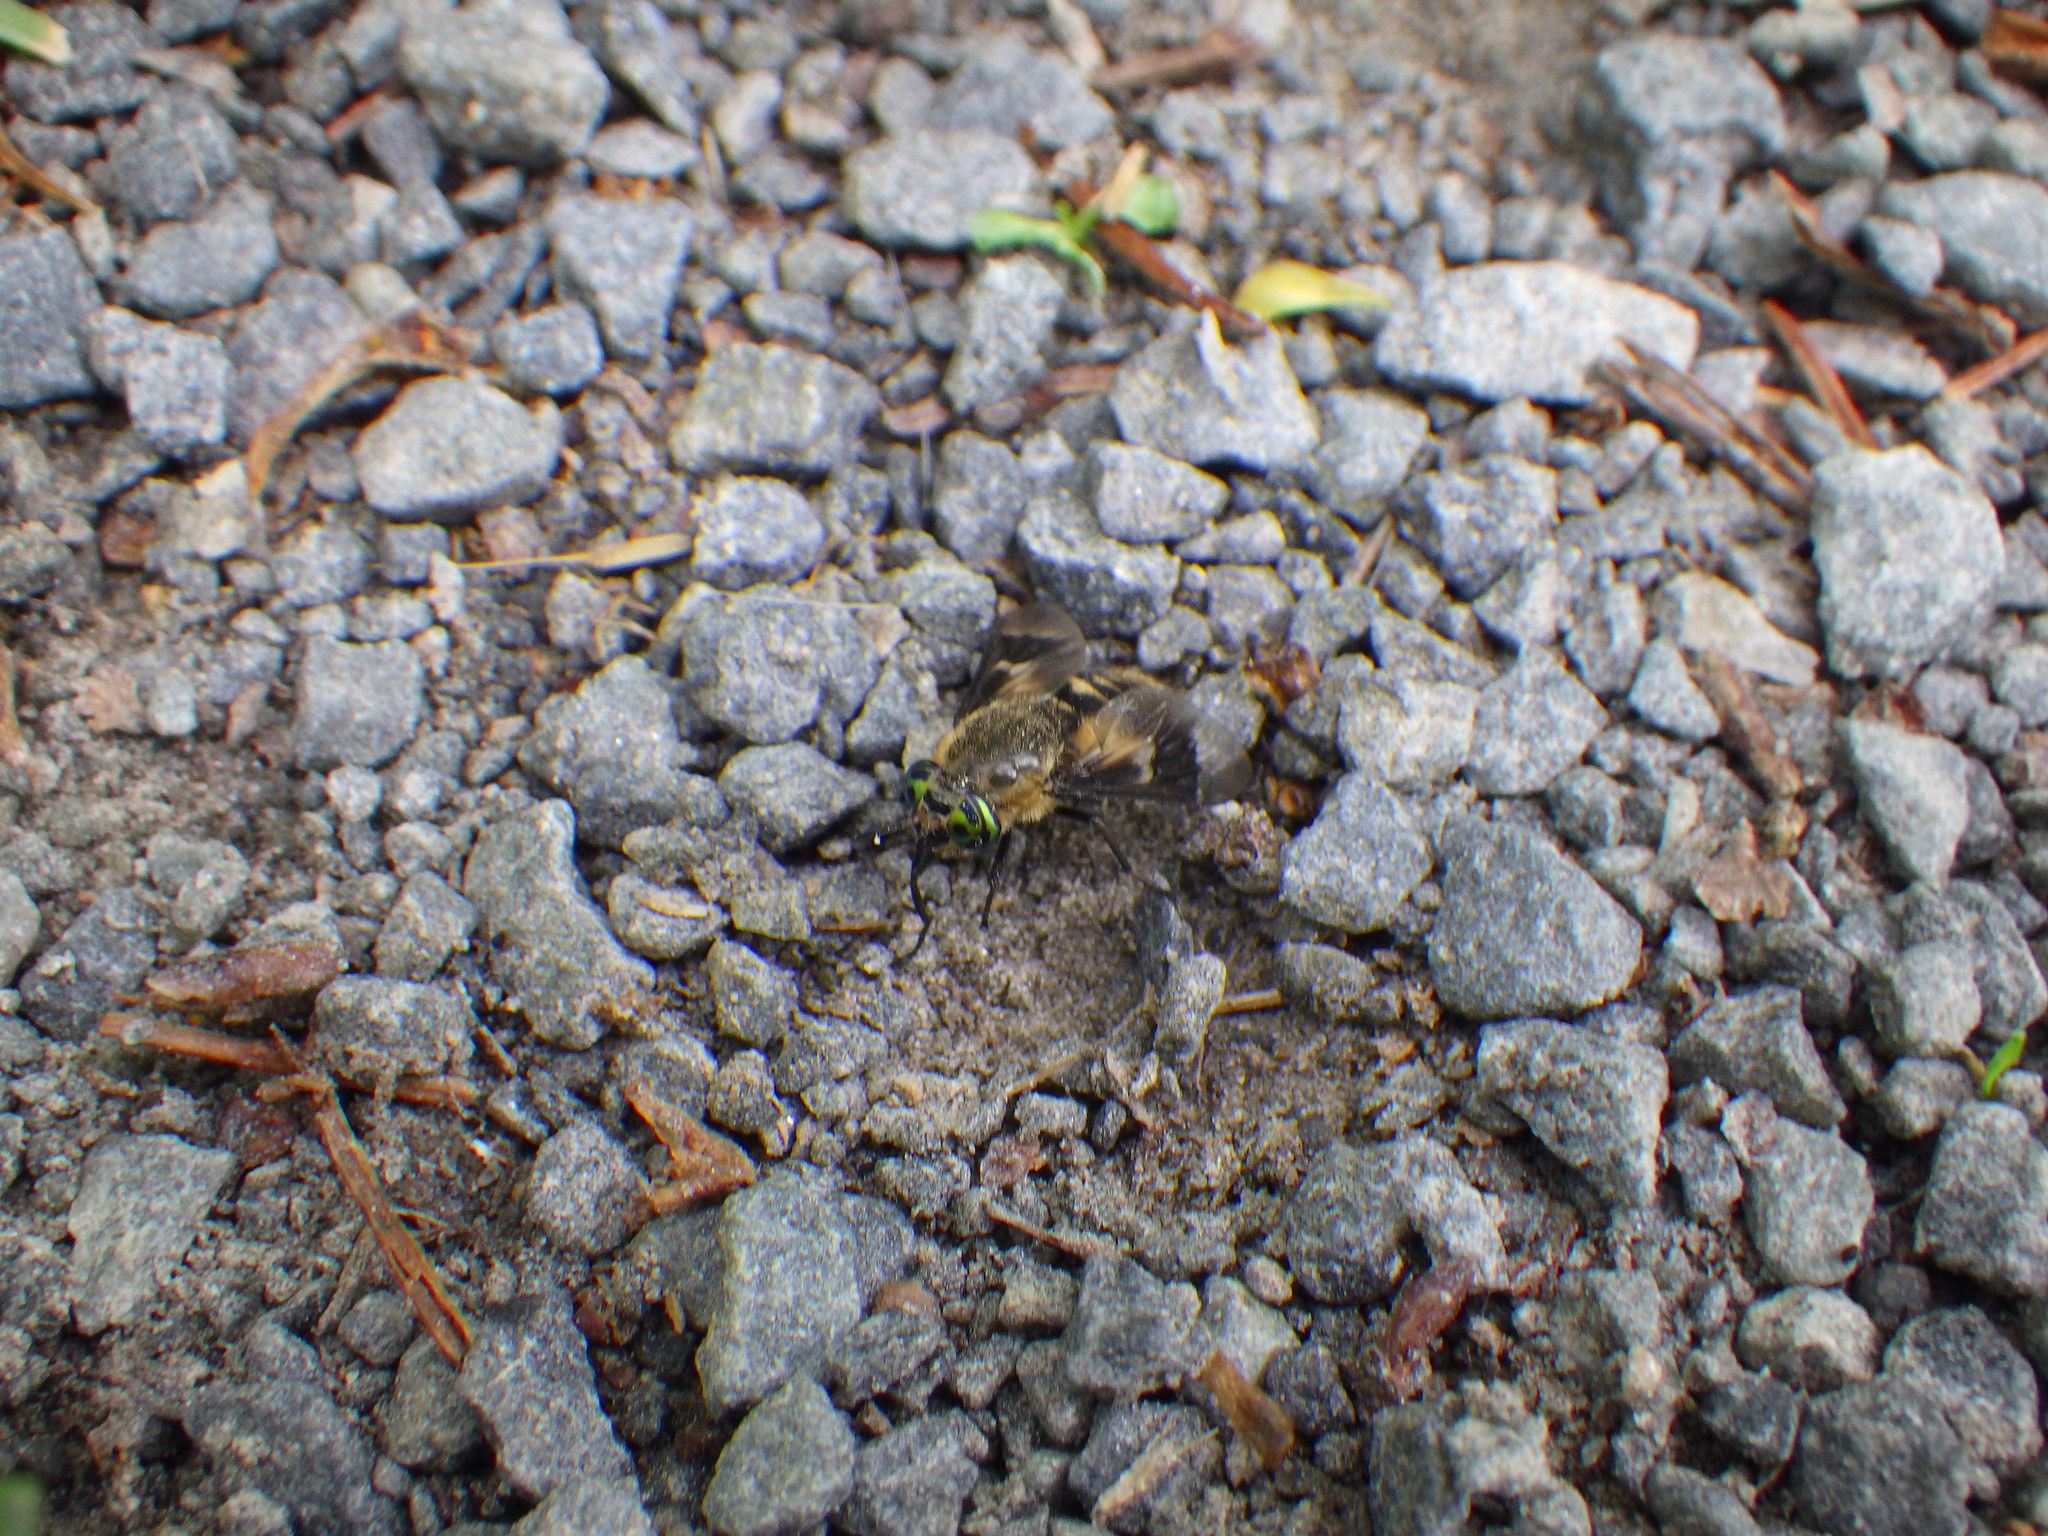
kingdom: Animalia
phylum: Arthropoda
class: Insecta
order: Diptera
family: Tabanidae
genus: Chrysops
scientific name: Chrysops excitans
